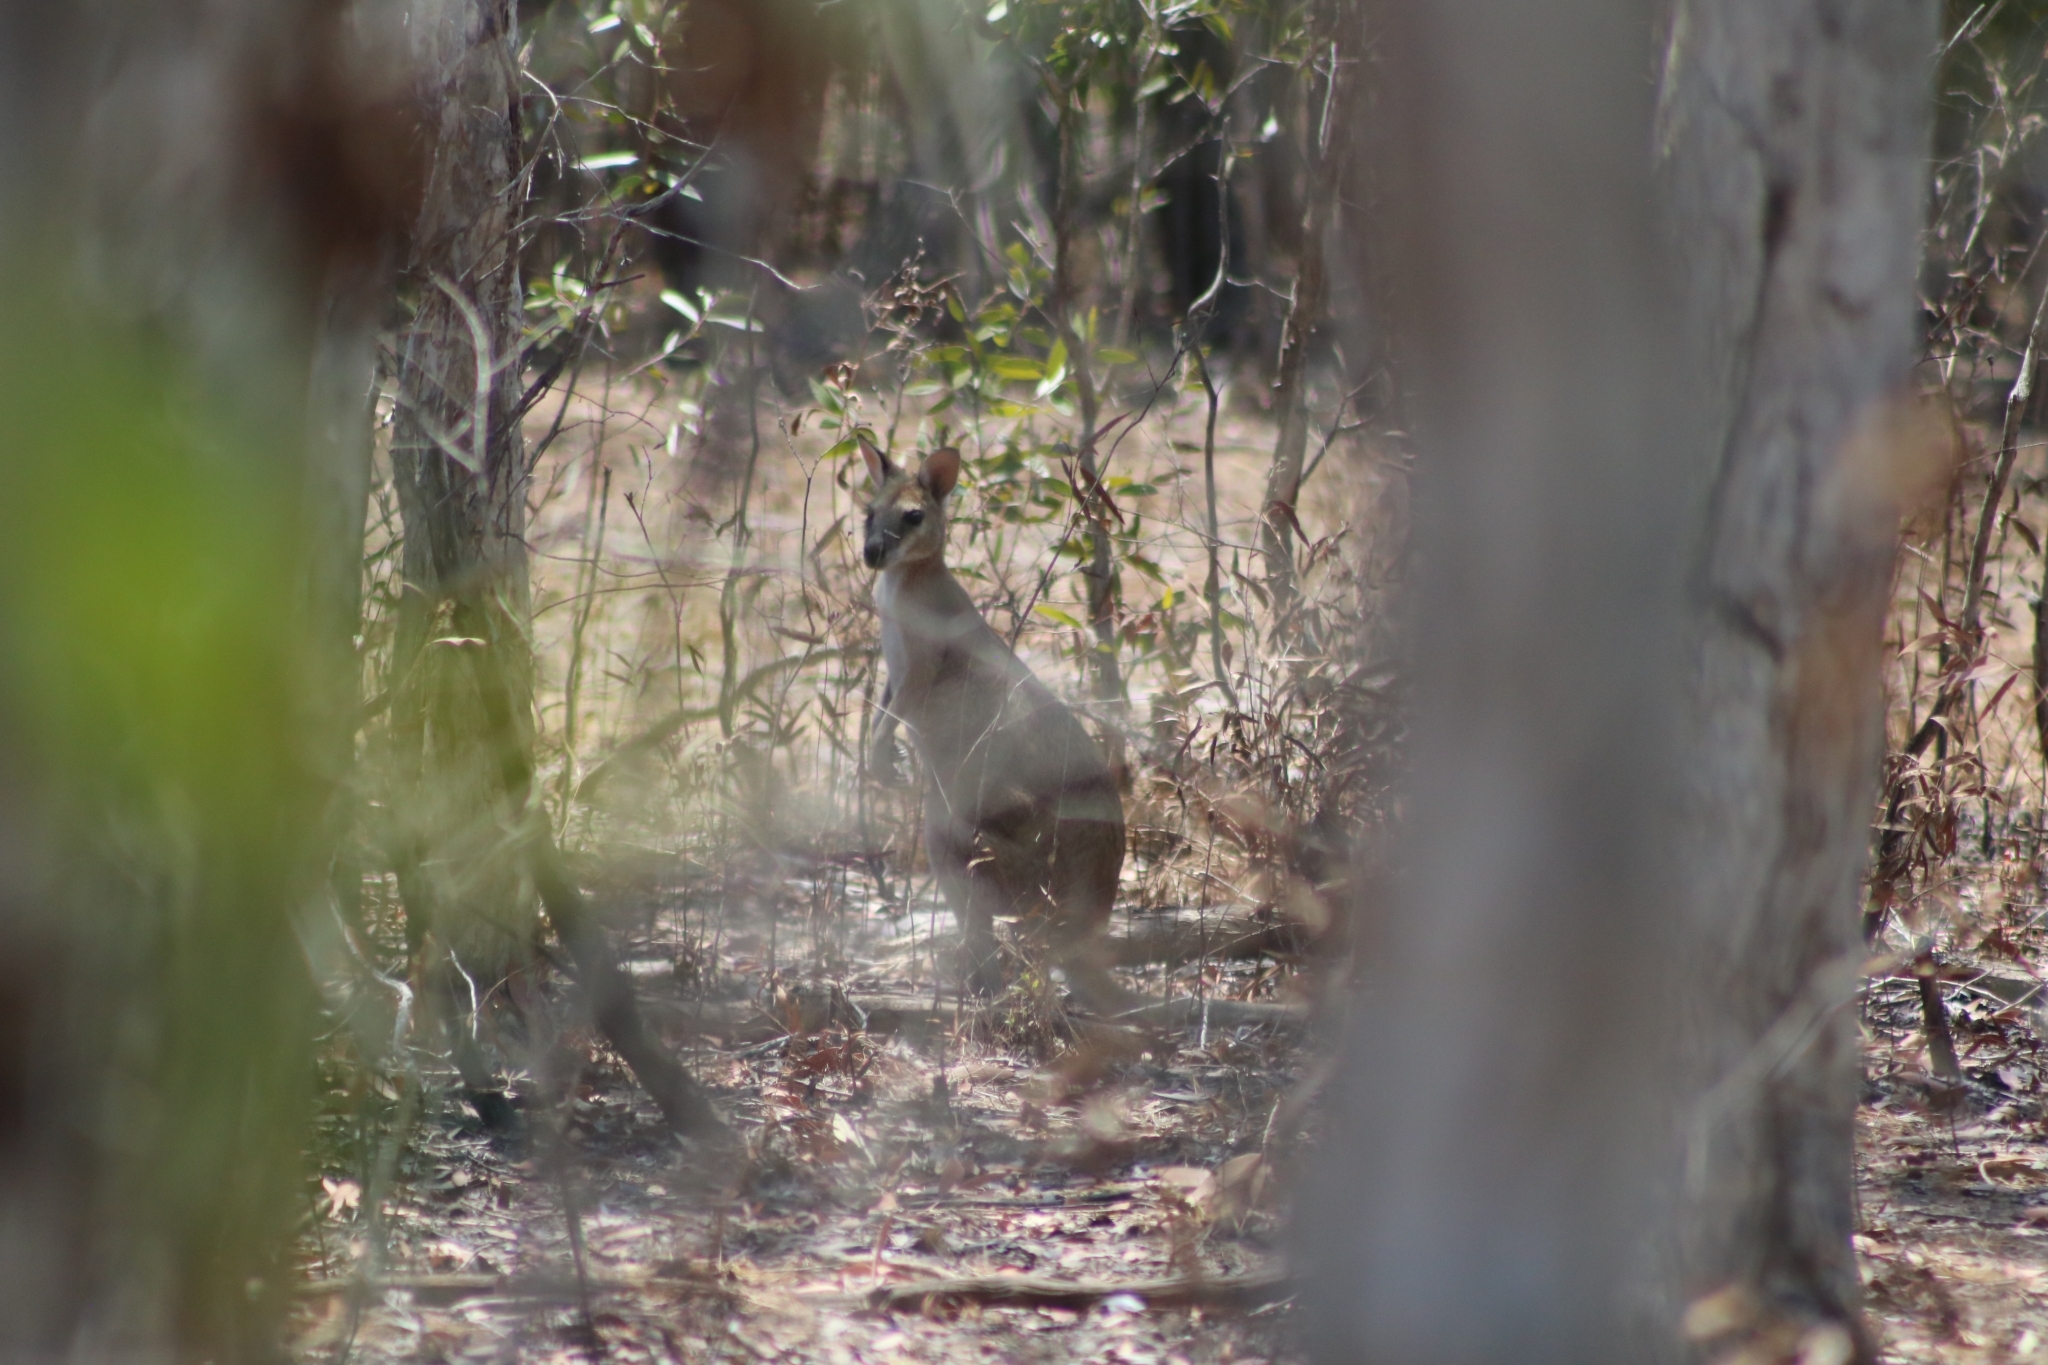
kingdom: Animalia
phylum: Chordata
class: Mammalia
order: Diprotodontia
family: Macropodidae
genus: Macropus
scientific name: Macropus agilis
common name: Agile wallaby
